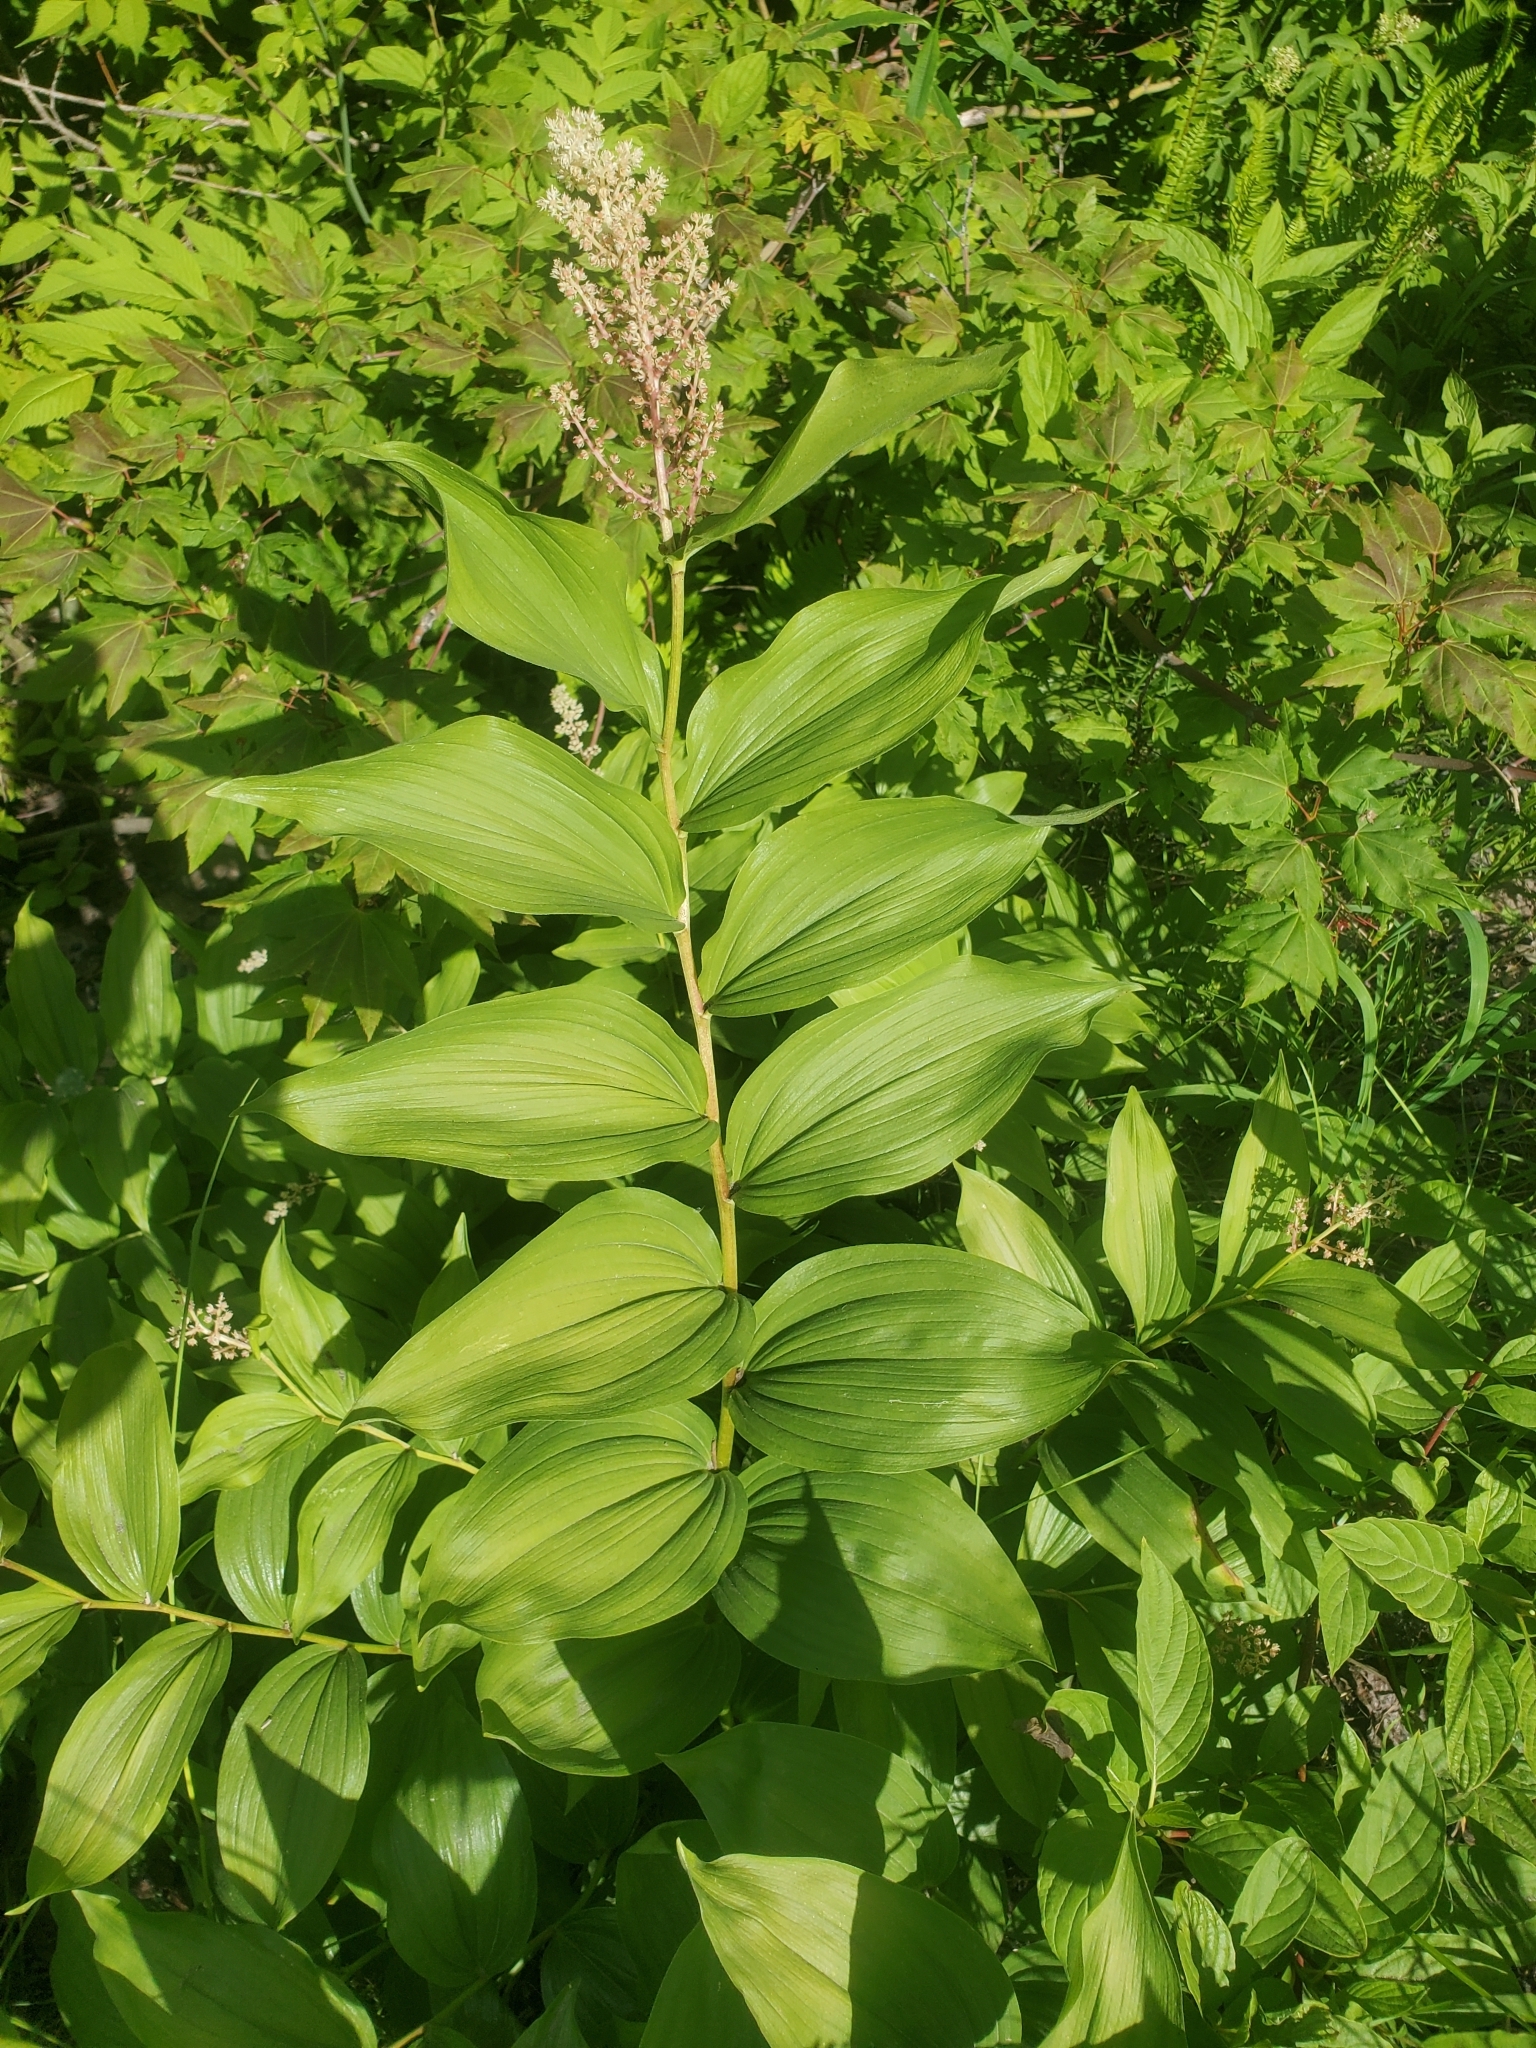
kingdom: Plantae
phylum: Tracheophyta
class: Liliopsida
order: Asparagales
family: Asparagaceae
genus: Maianthemum
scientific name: Maianthemum racemosum
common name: False spikenard
